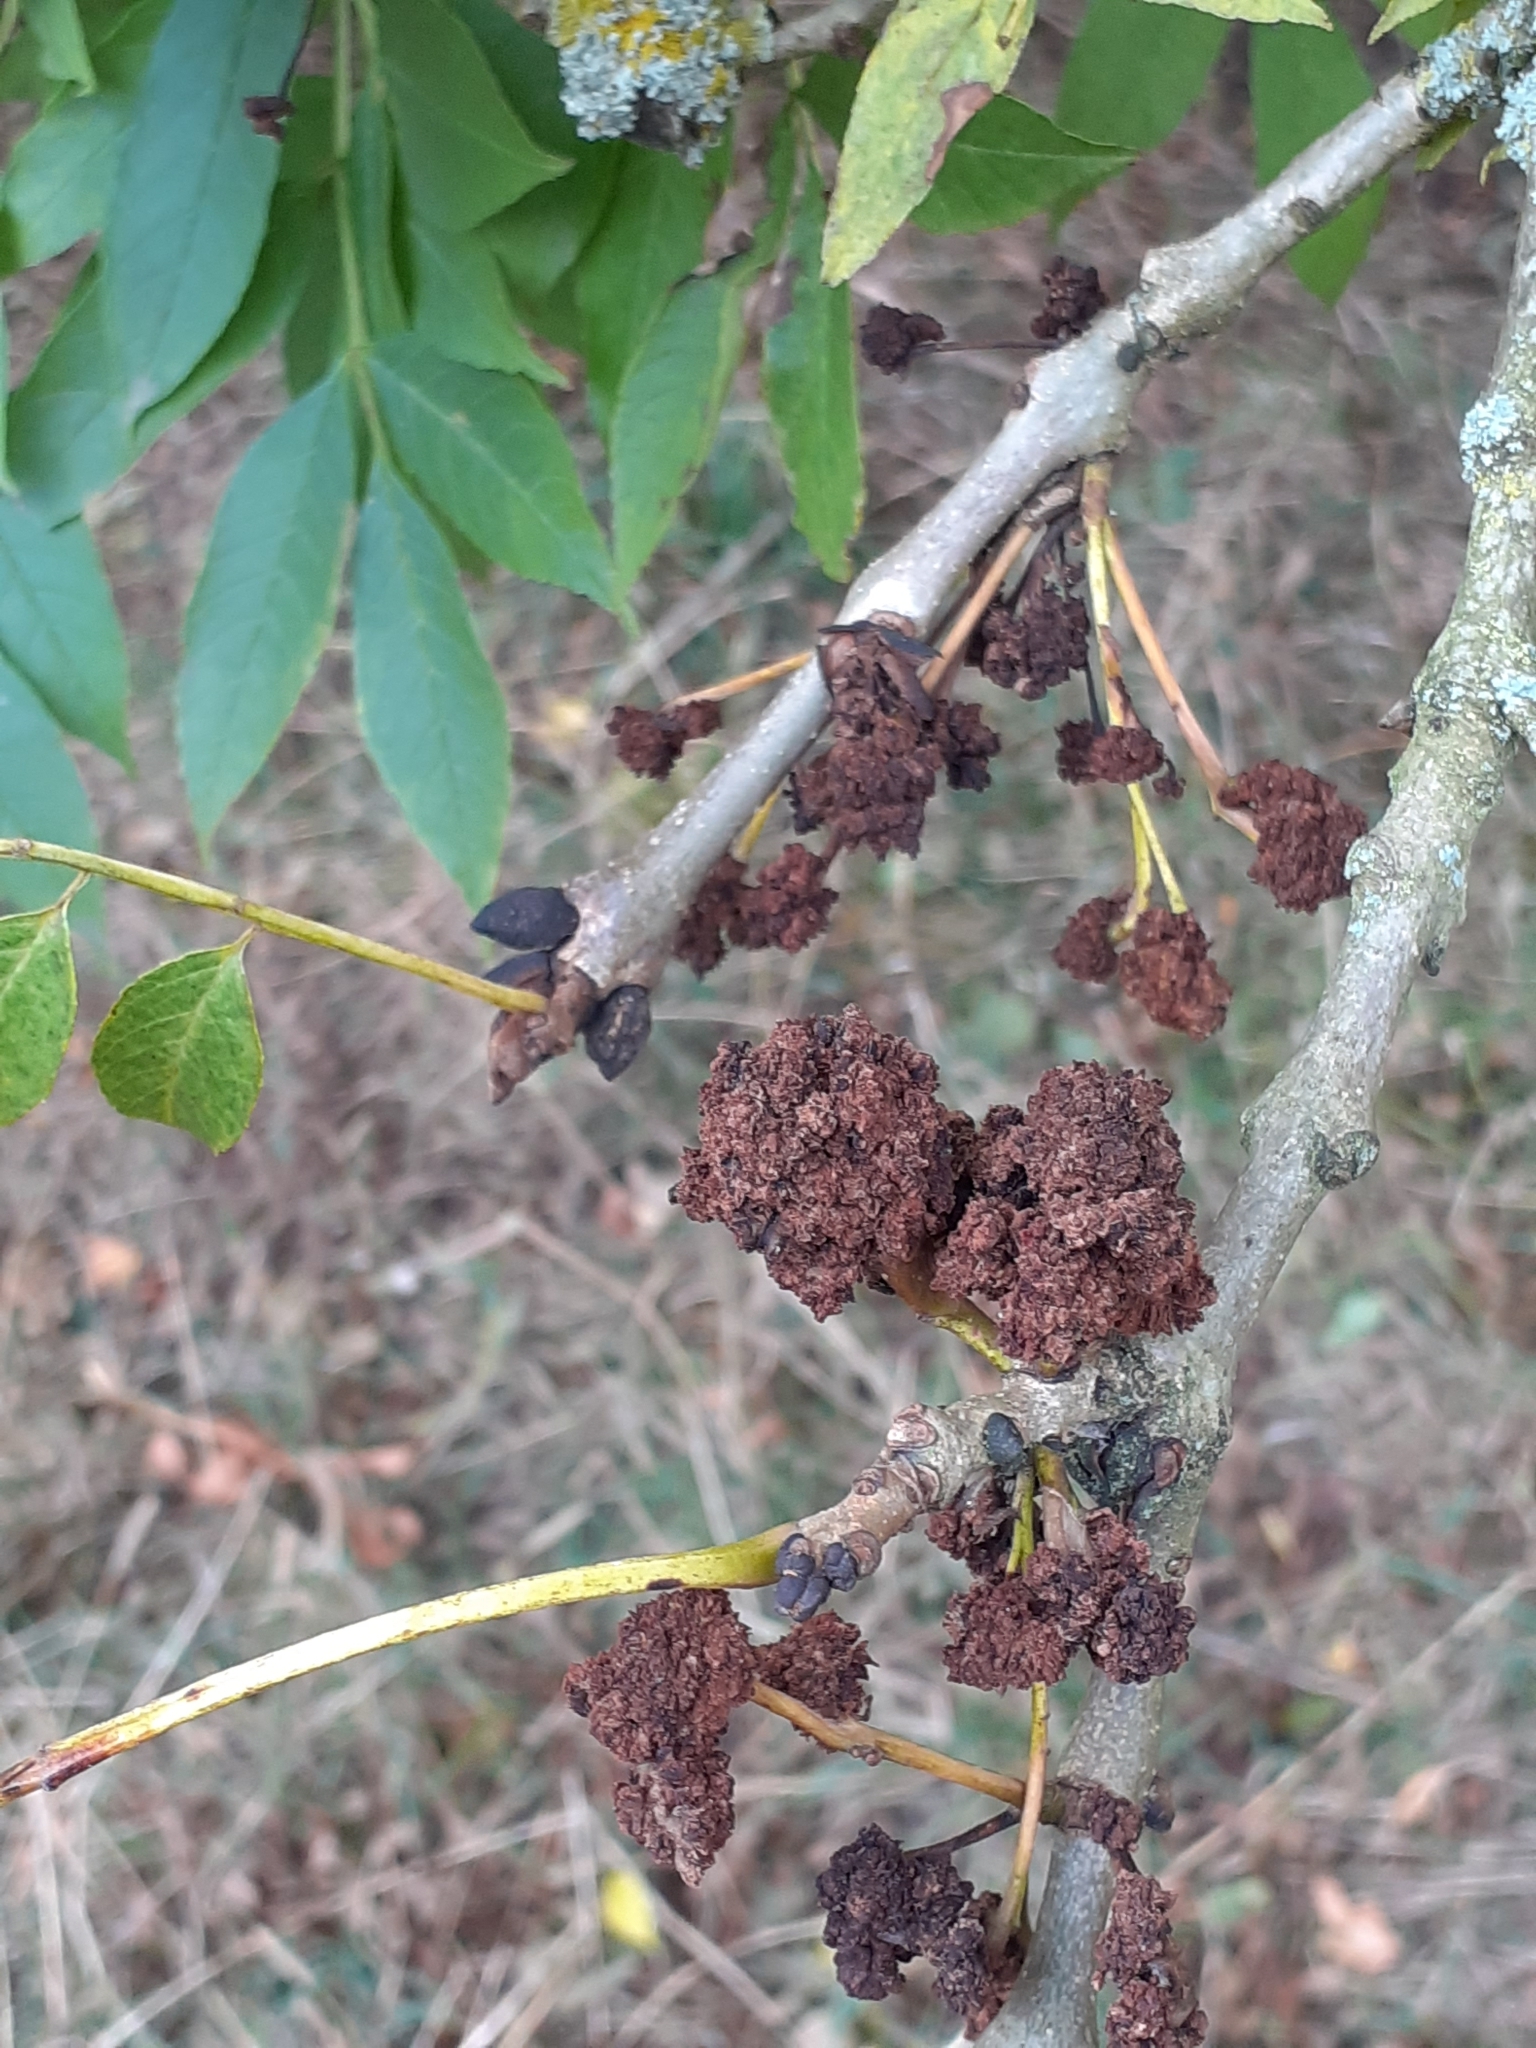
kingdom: Animalia
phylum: Arthropoda
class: Arachnida
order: Trombidiformes
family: Eriophyidae
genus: Aceria
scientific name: Aceria fraxinivora
